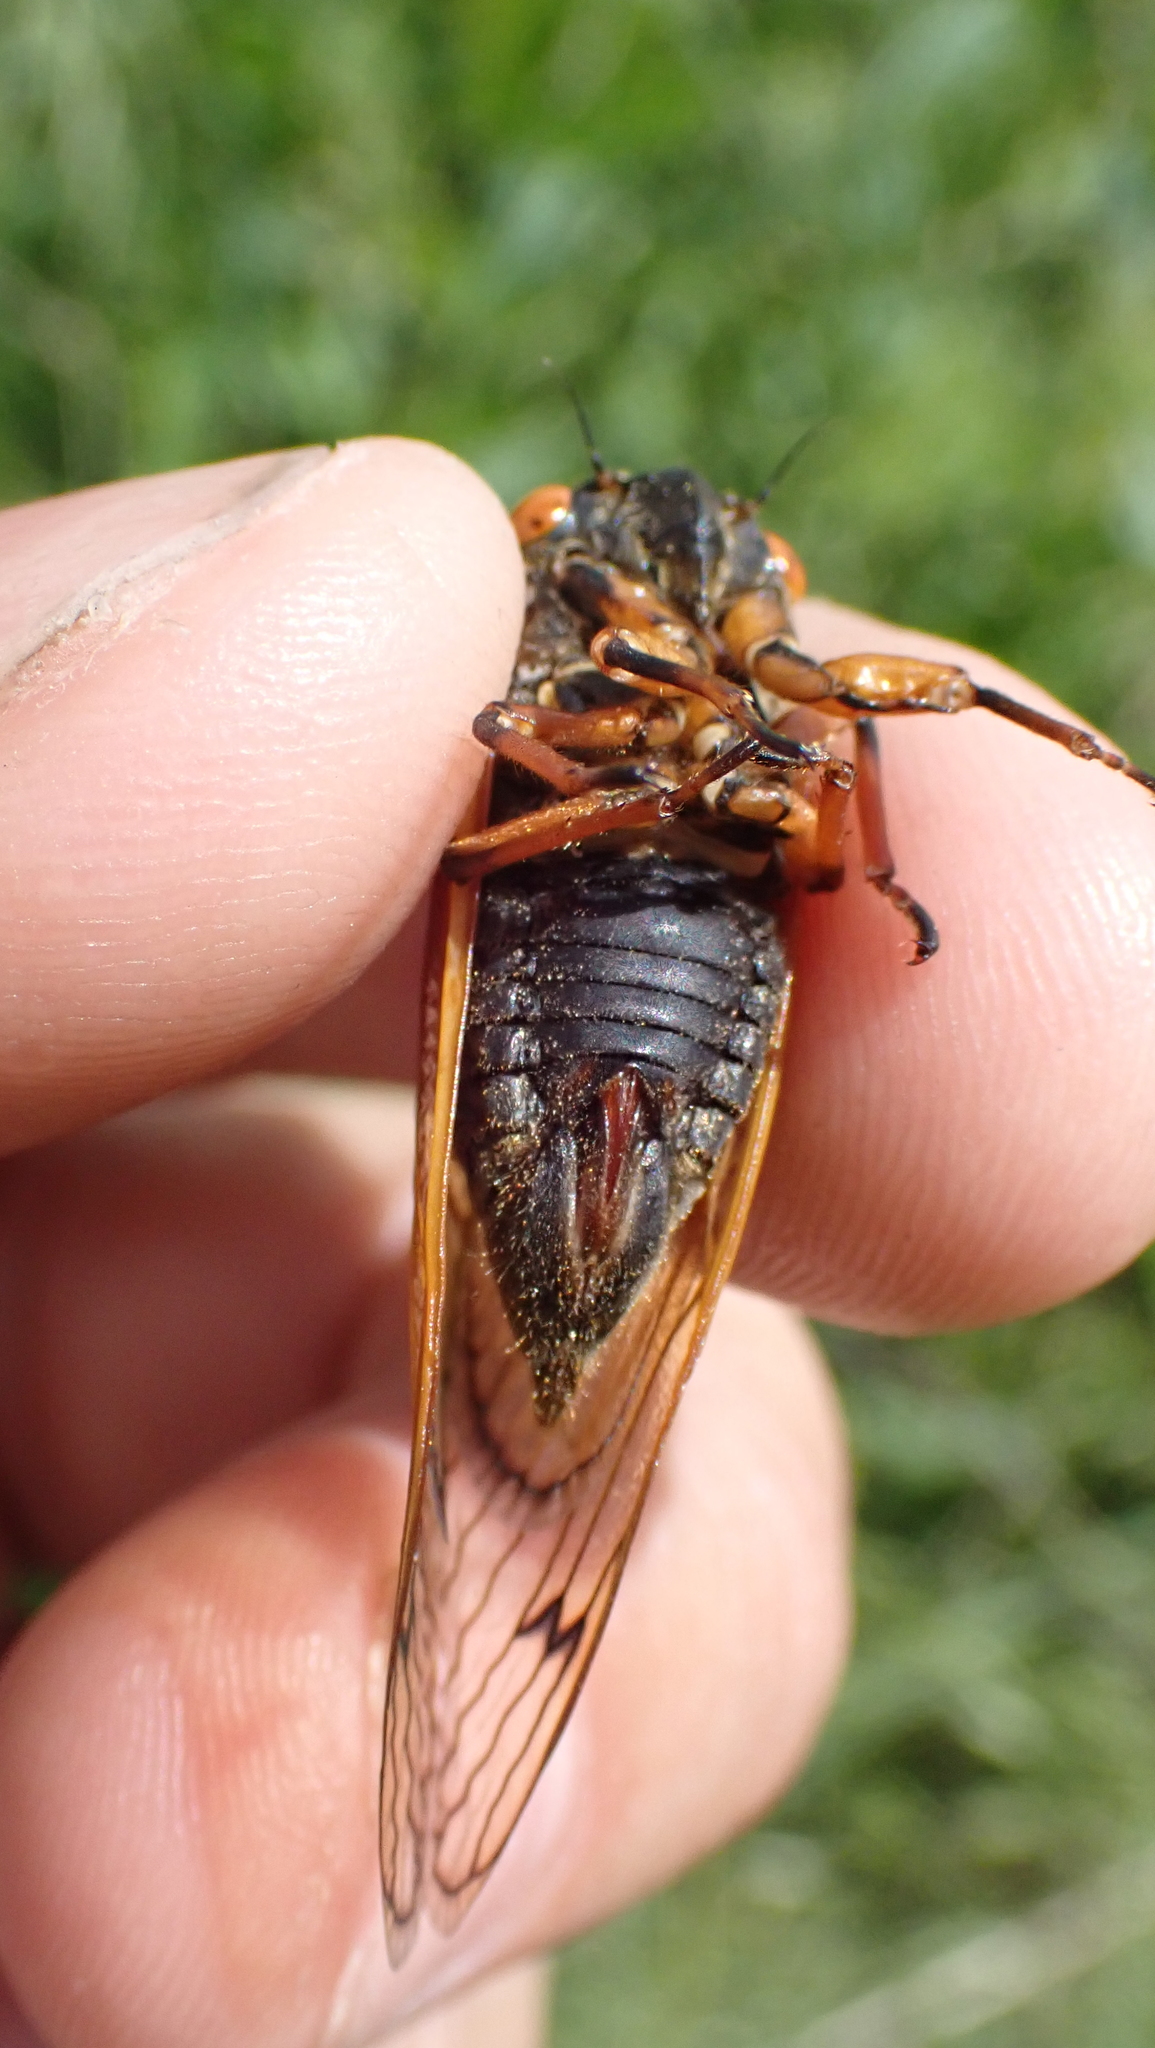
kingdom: Animalia
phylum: Arthropoda
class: Insecta
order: Hemiptera
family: Cicadidae
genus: Magicicada
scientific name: Magicicada cassini
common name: Cassin's 17-year cicada
